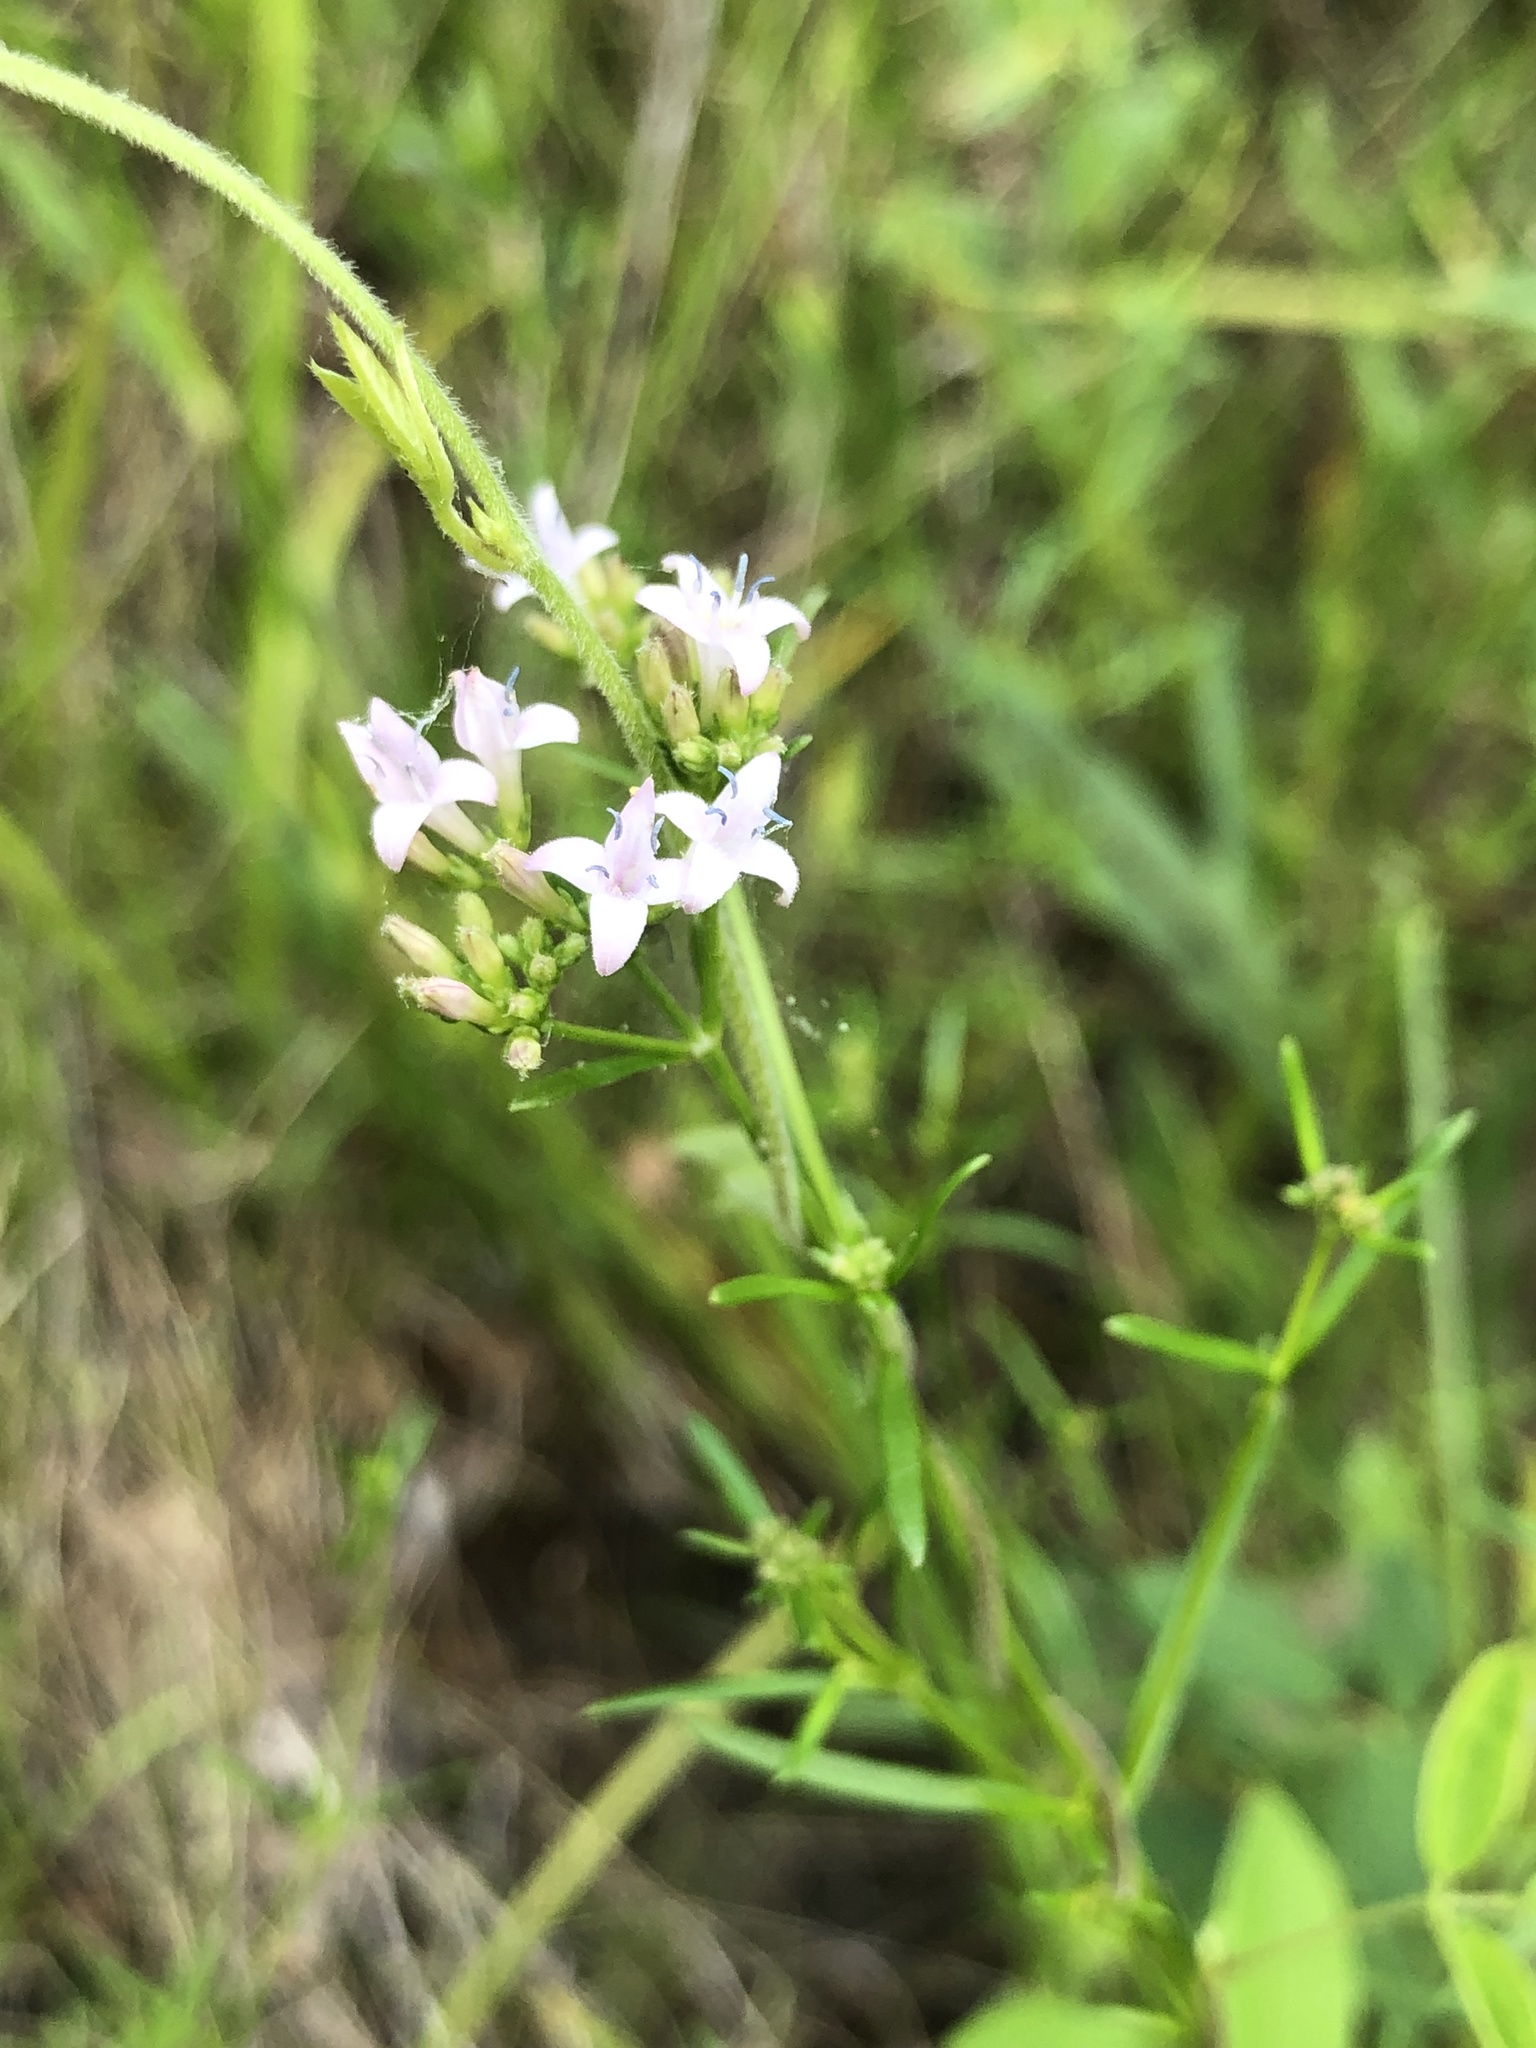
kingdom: Plantae
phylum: Tracheophyta
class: Magnoliopsida
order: Gentianales
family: Rubiaceae
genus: Stenaria
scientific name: Stenaria nigricans
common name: Diamondflowers
